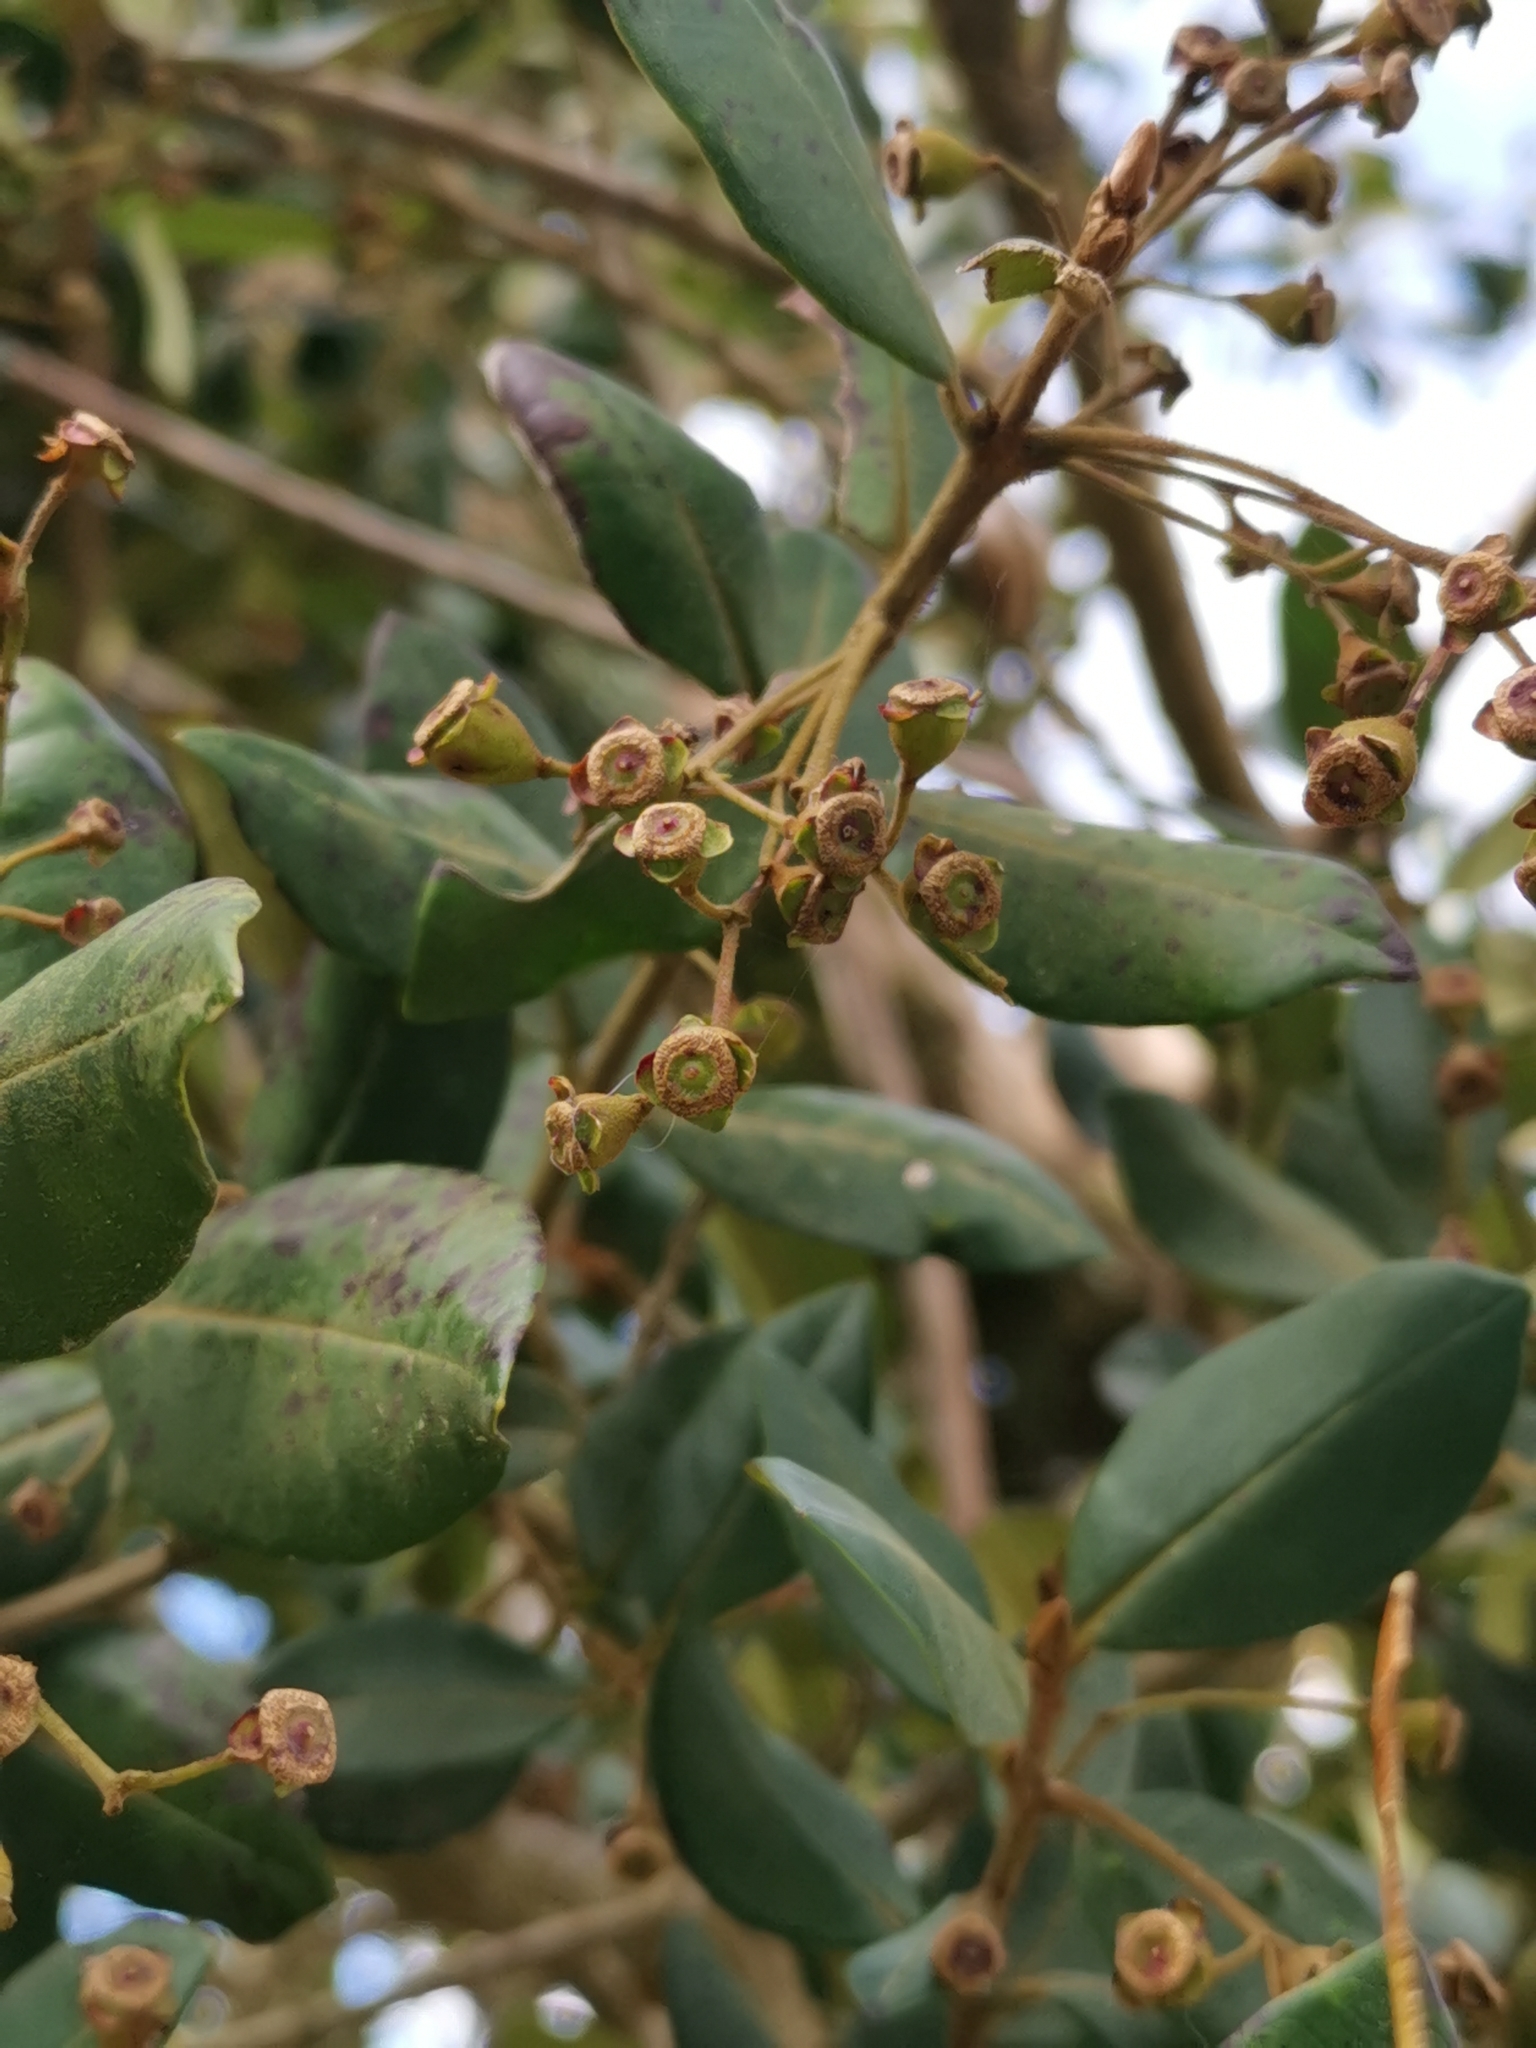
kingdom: Plantae
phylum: Tracheophyta
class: Magnoliopsida
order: Myrtales
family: Myrtaceae
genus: Myrceugenia
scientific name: Myrceugenia exsucca
